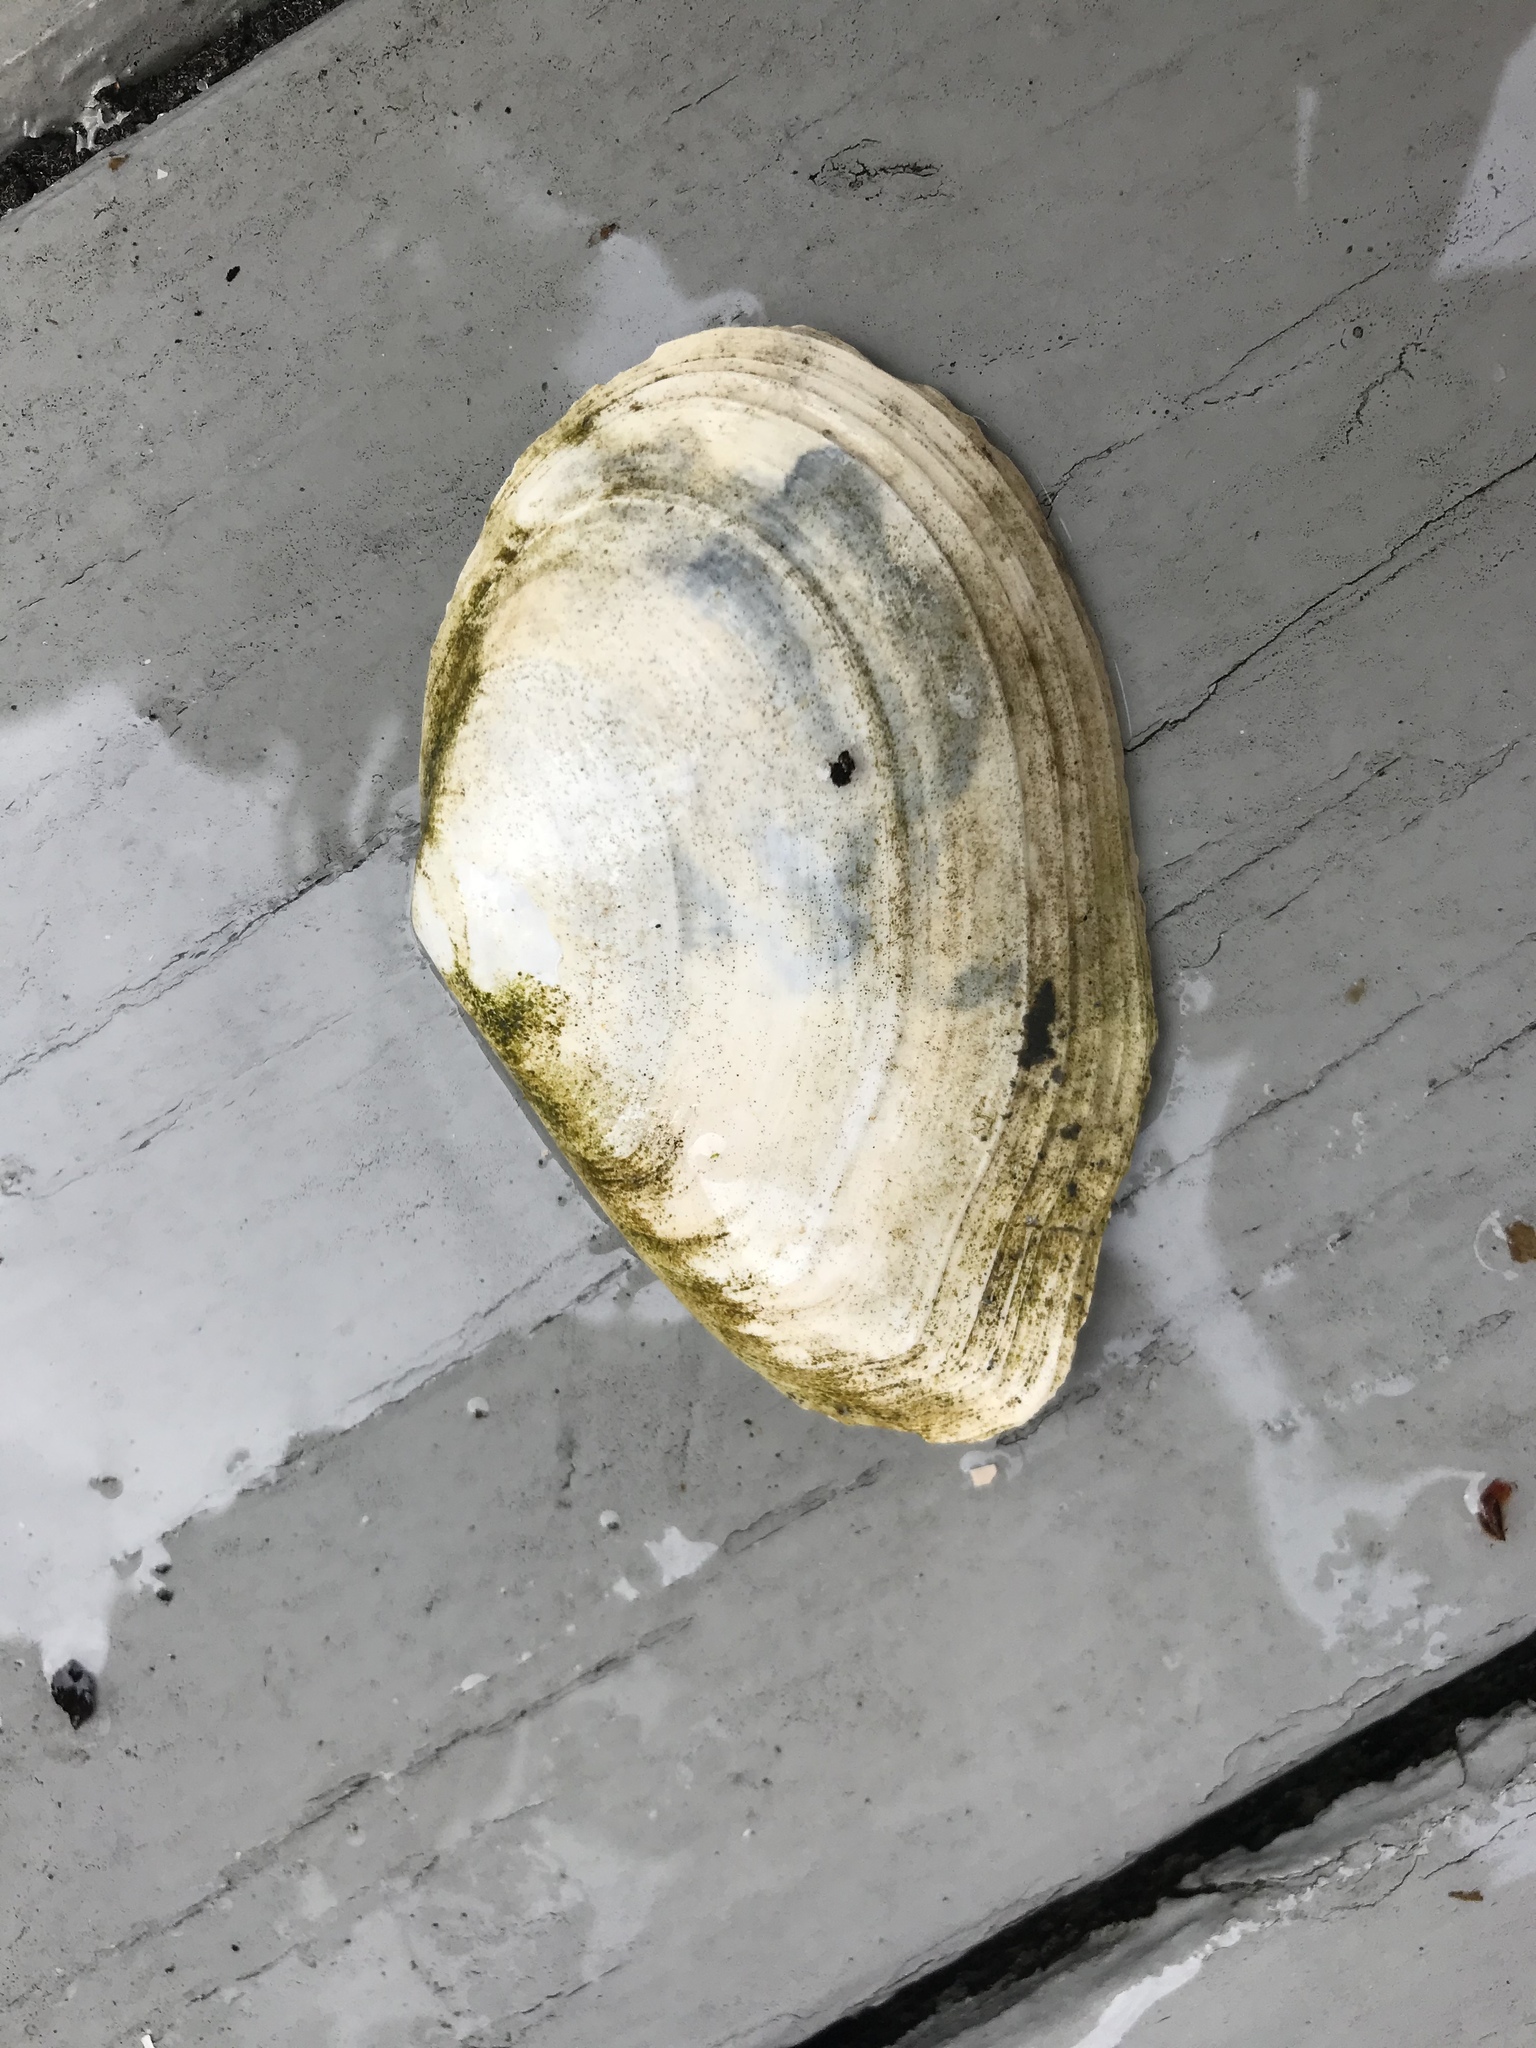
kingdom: Animalia
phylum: Mollusca
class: Bivalvia
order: Cardiida
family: Tellinidae
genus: Macoma
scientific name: Macoma nasuta
